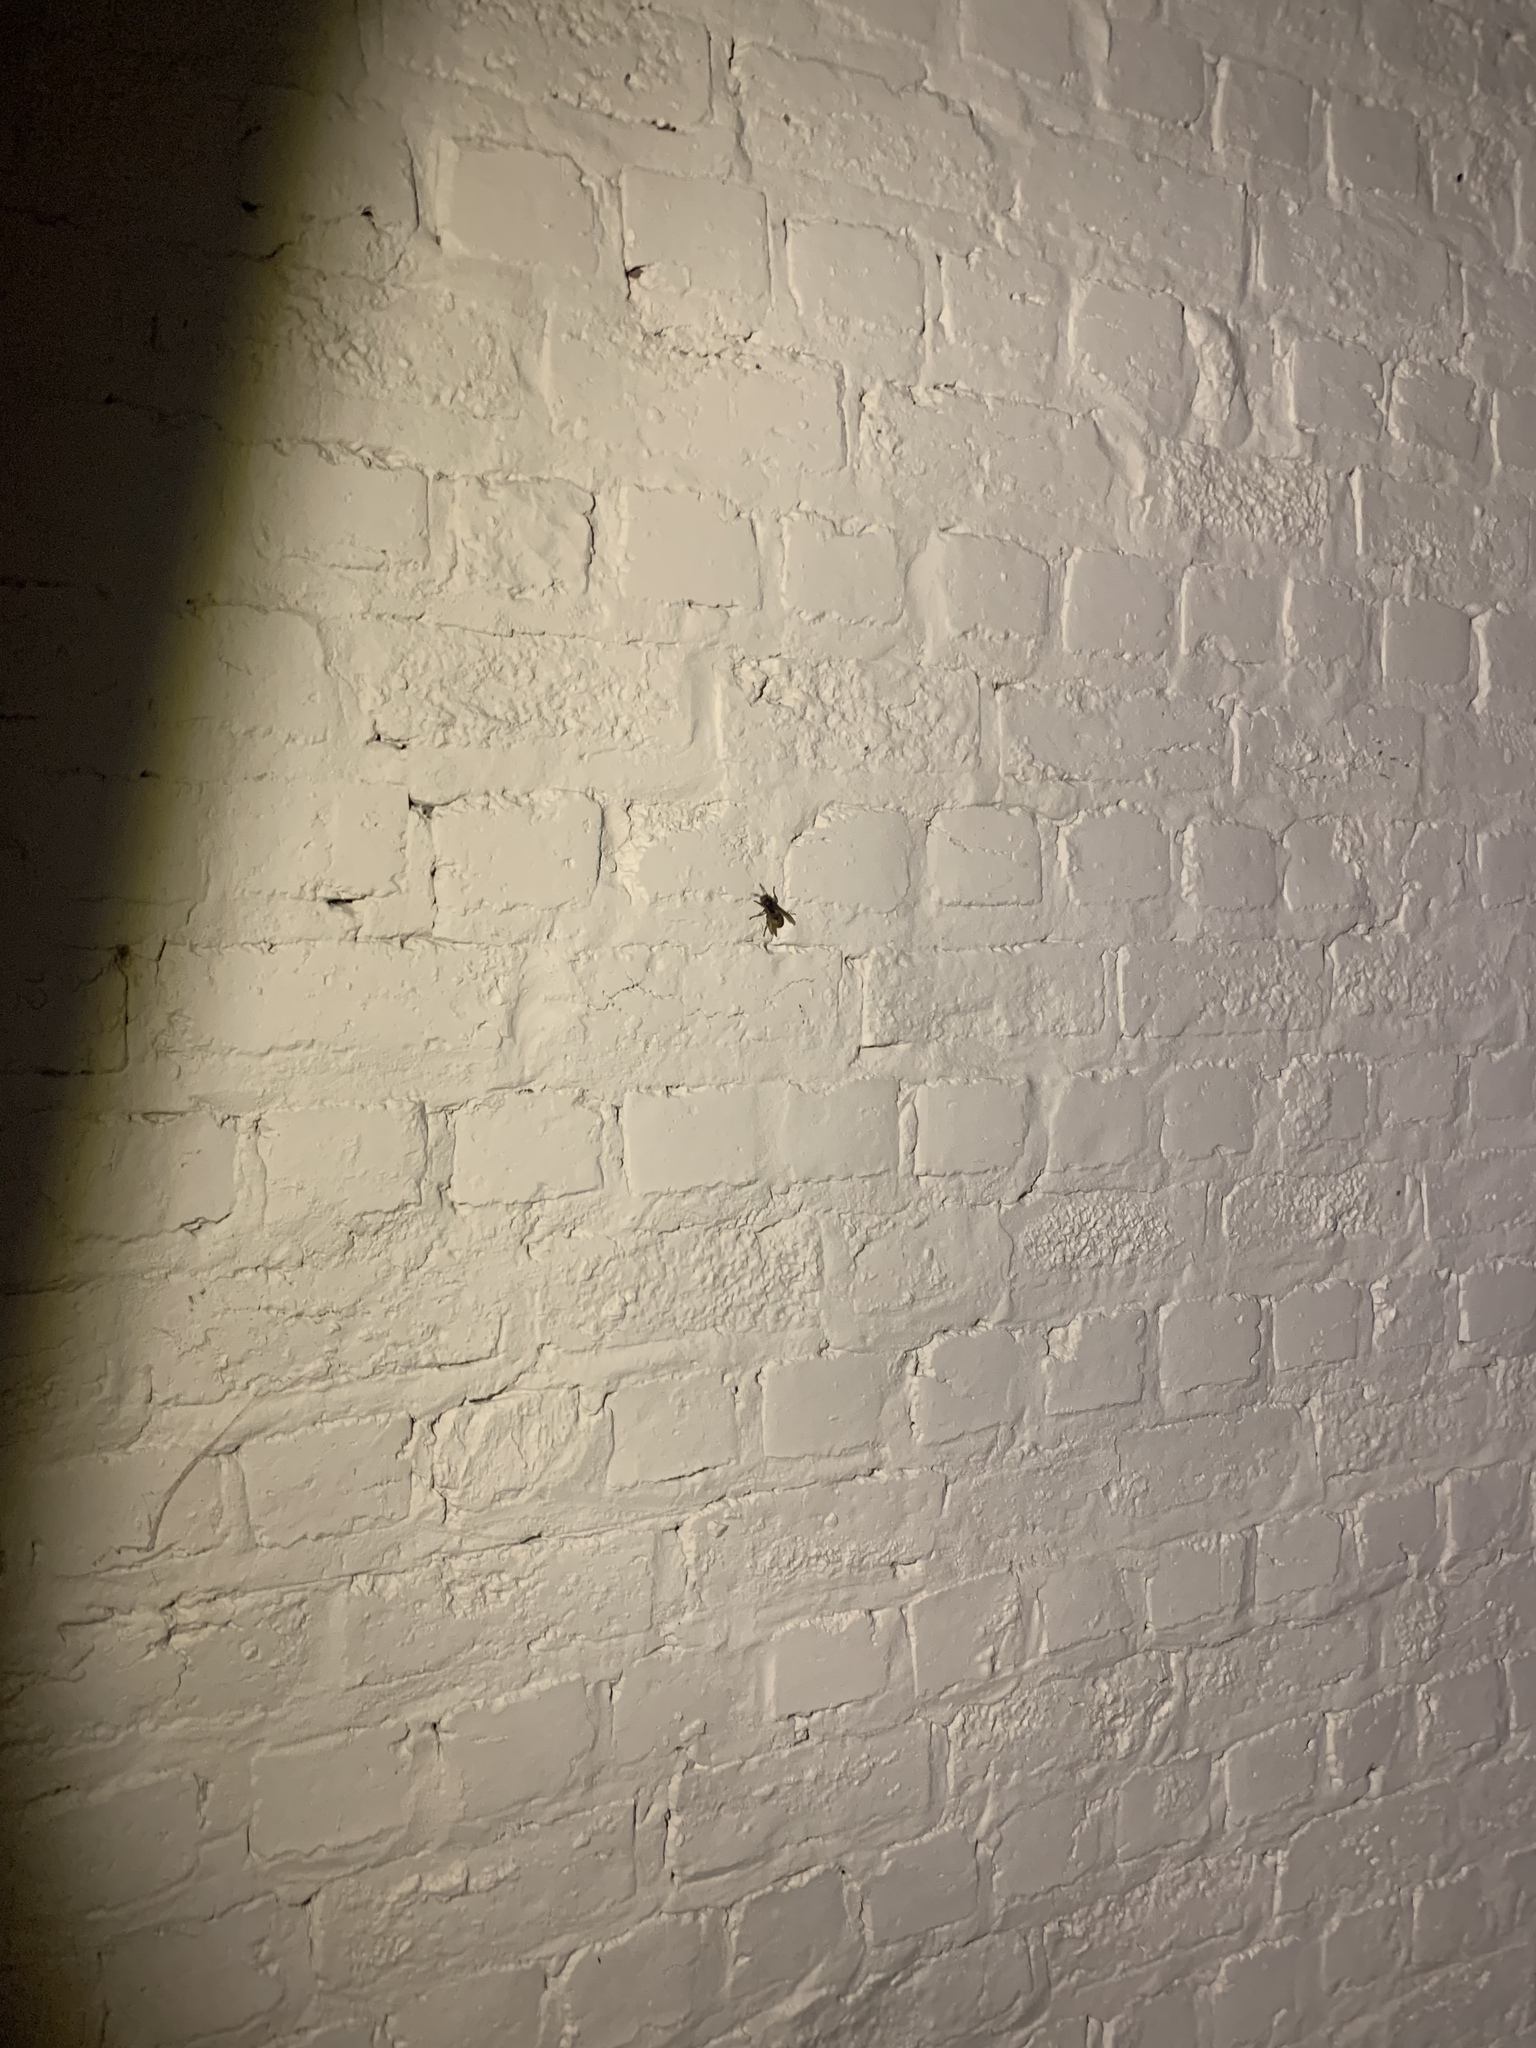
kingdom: Animalia
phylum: Arthropoda
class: Insecta
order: Hymenoptera
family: Vespidae
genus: Vespa
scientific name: Vespa crabro
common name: Hornet
